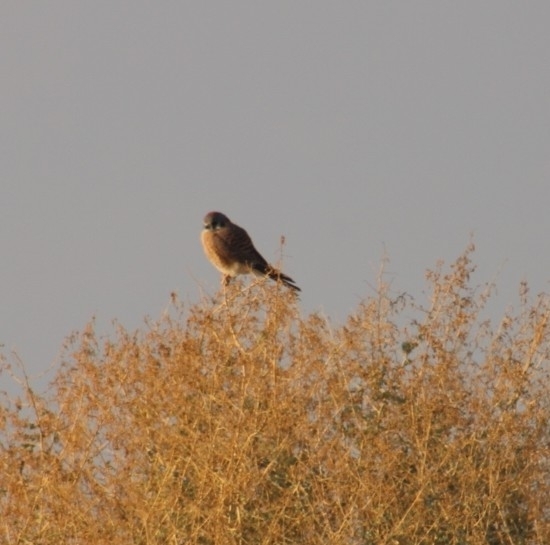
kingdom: Animalia
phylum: Chordata
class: Aves
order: Falconiformes
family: Falconidae
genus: Falco
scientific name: Falco sparverius
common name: American kestrel
